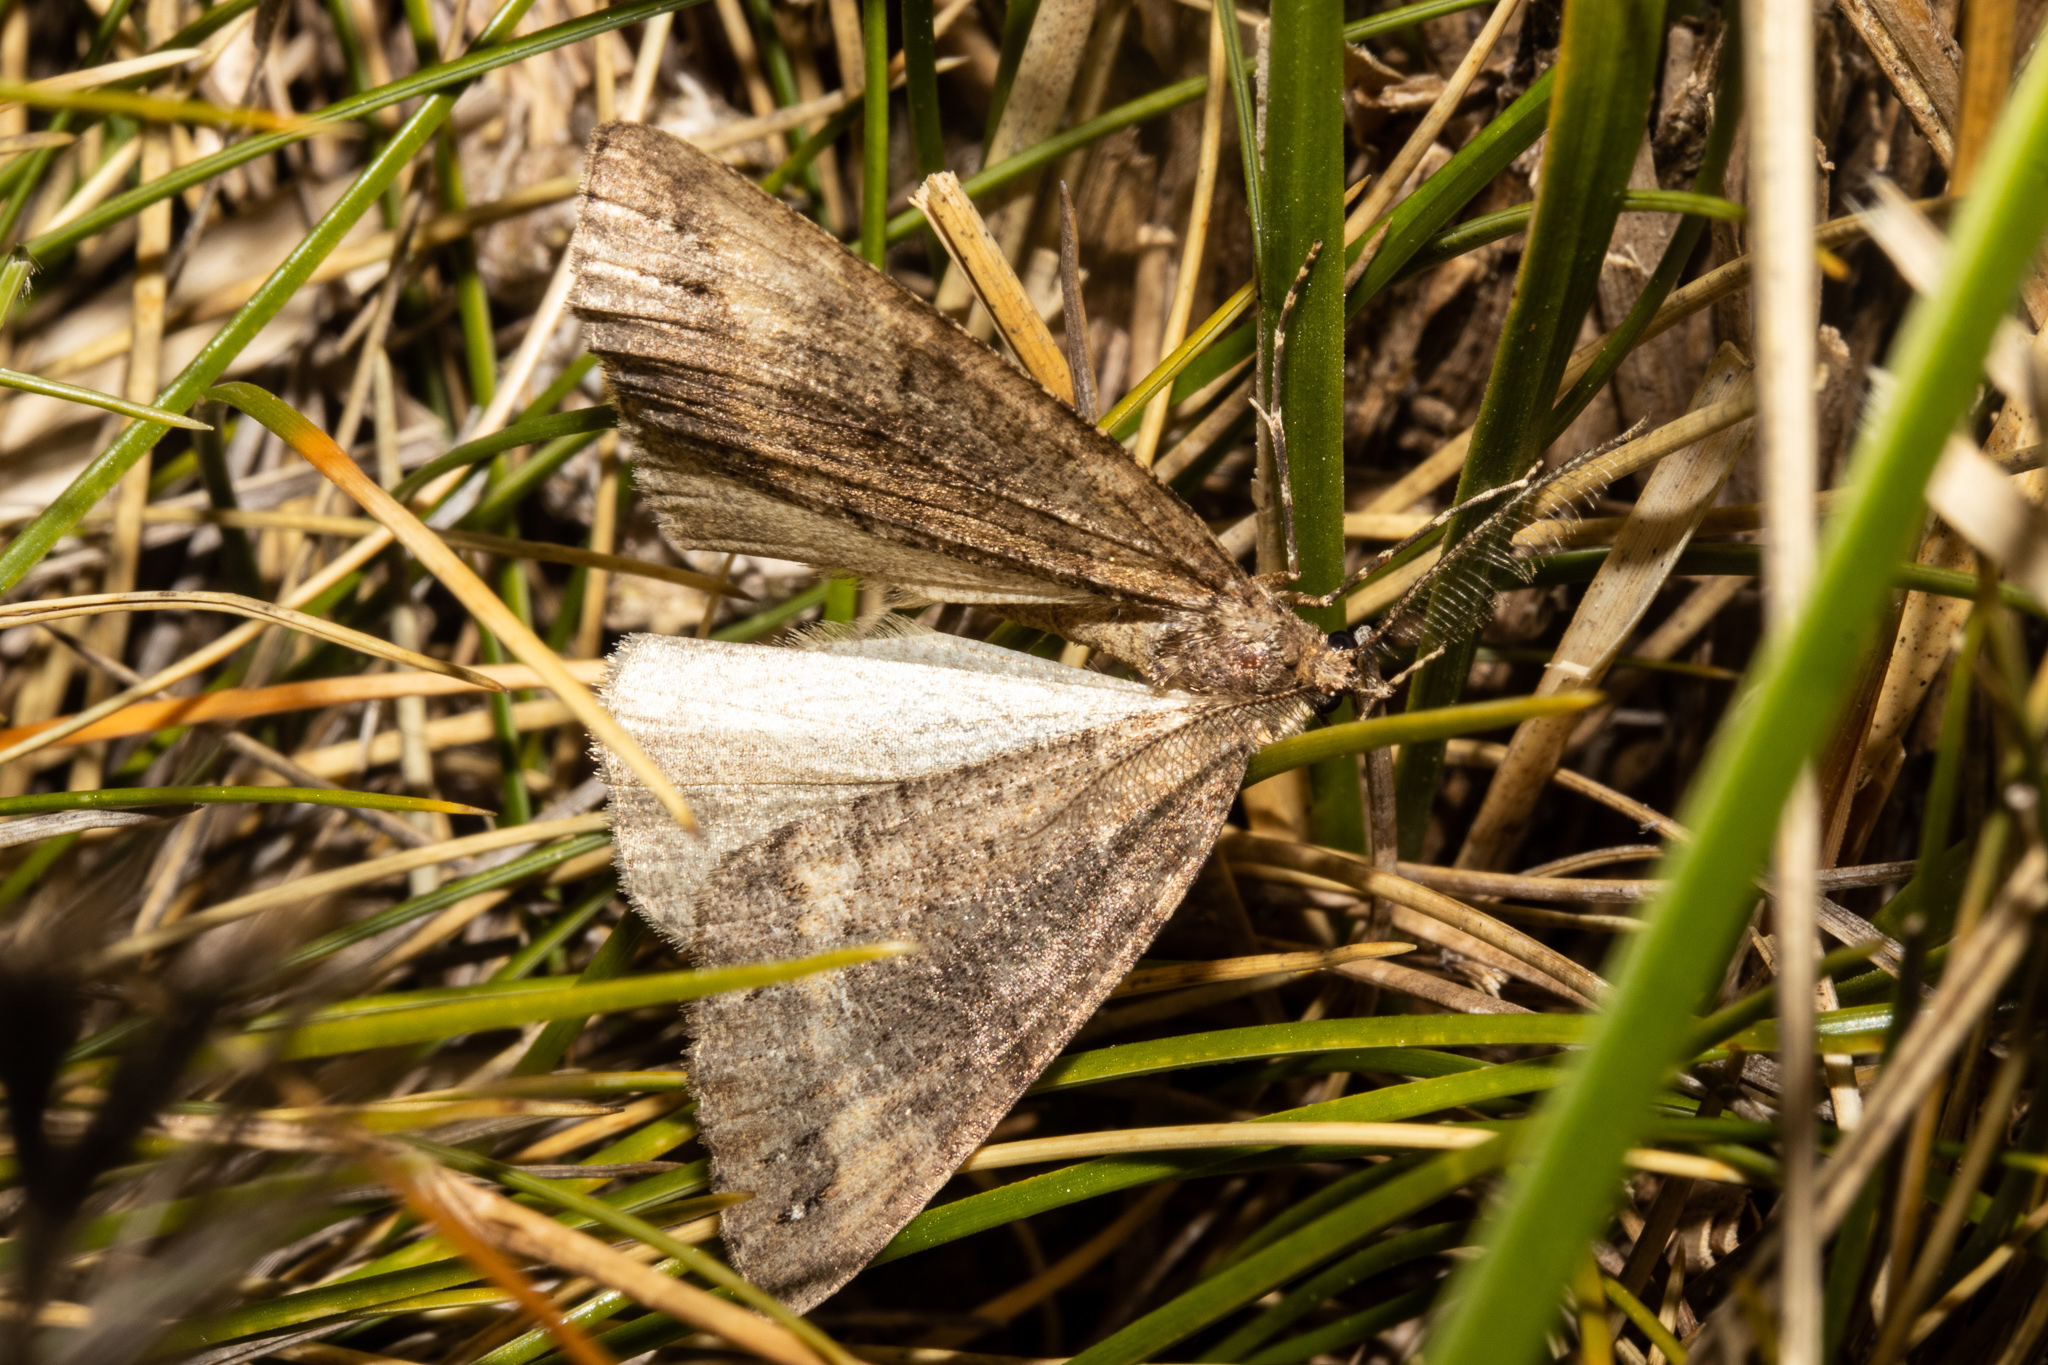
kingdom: Animalia
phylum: Arthropoda
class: Insecta
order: Lepidoptera
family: Geometridae
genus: Pseudocoremia
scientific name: Pseudocoremia berylia
